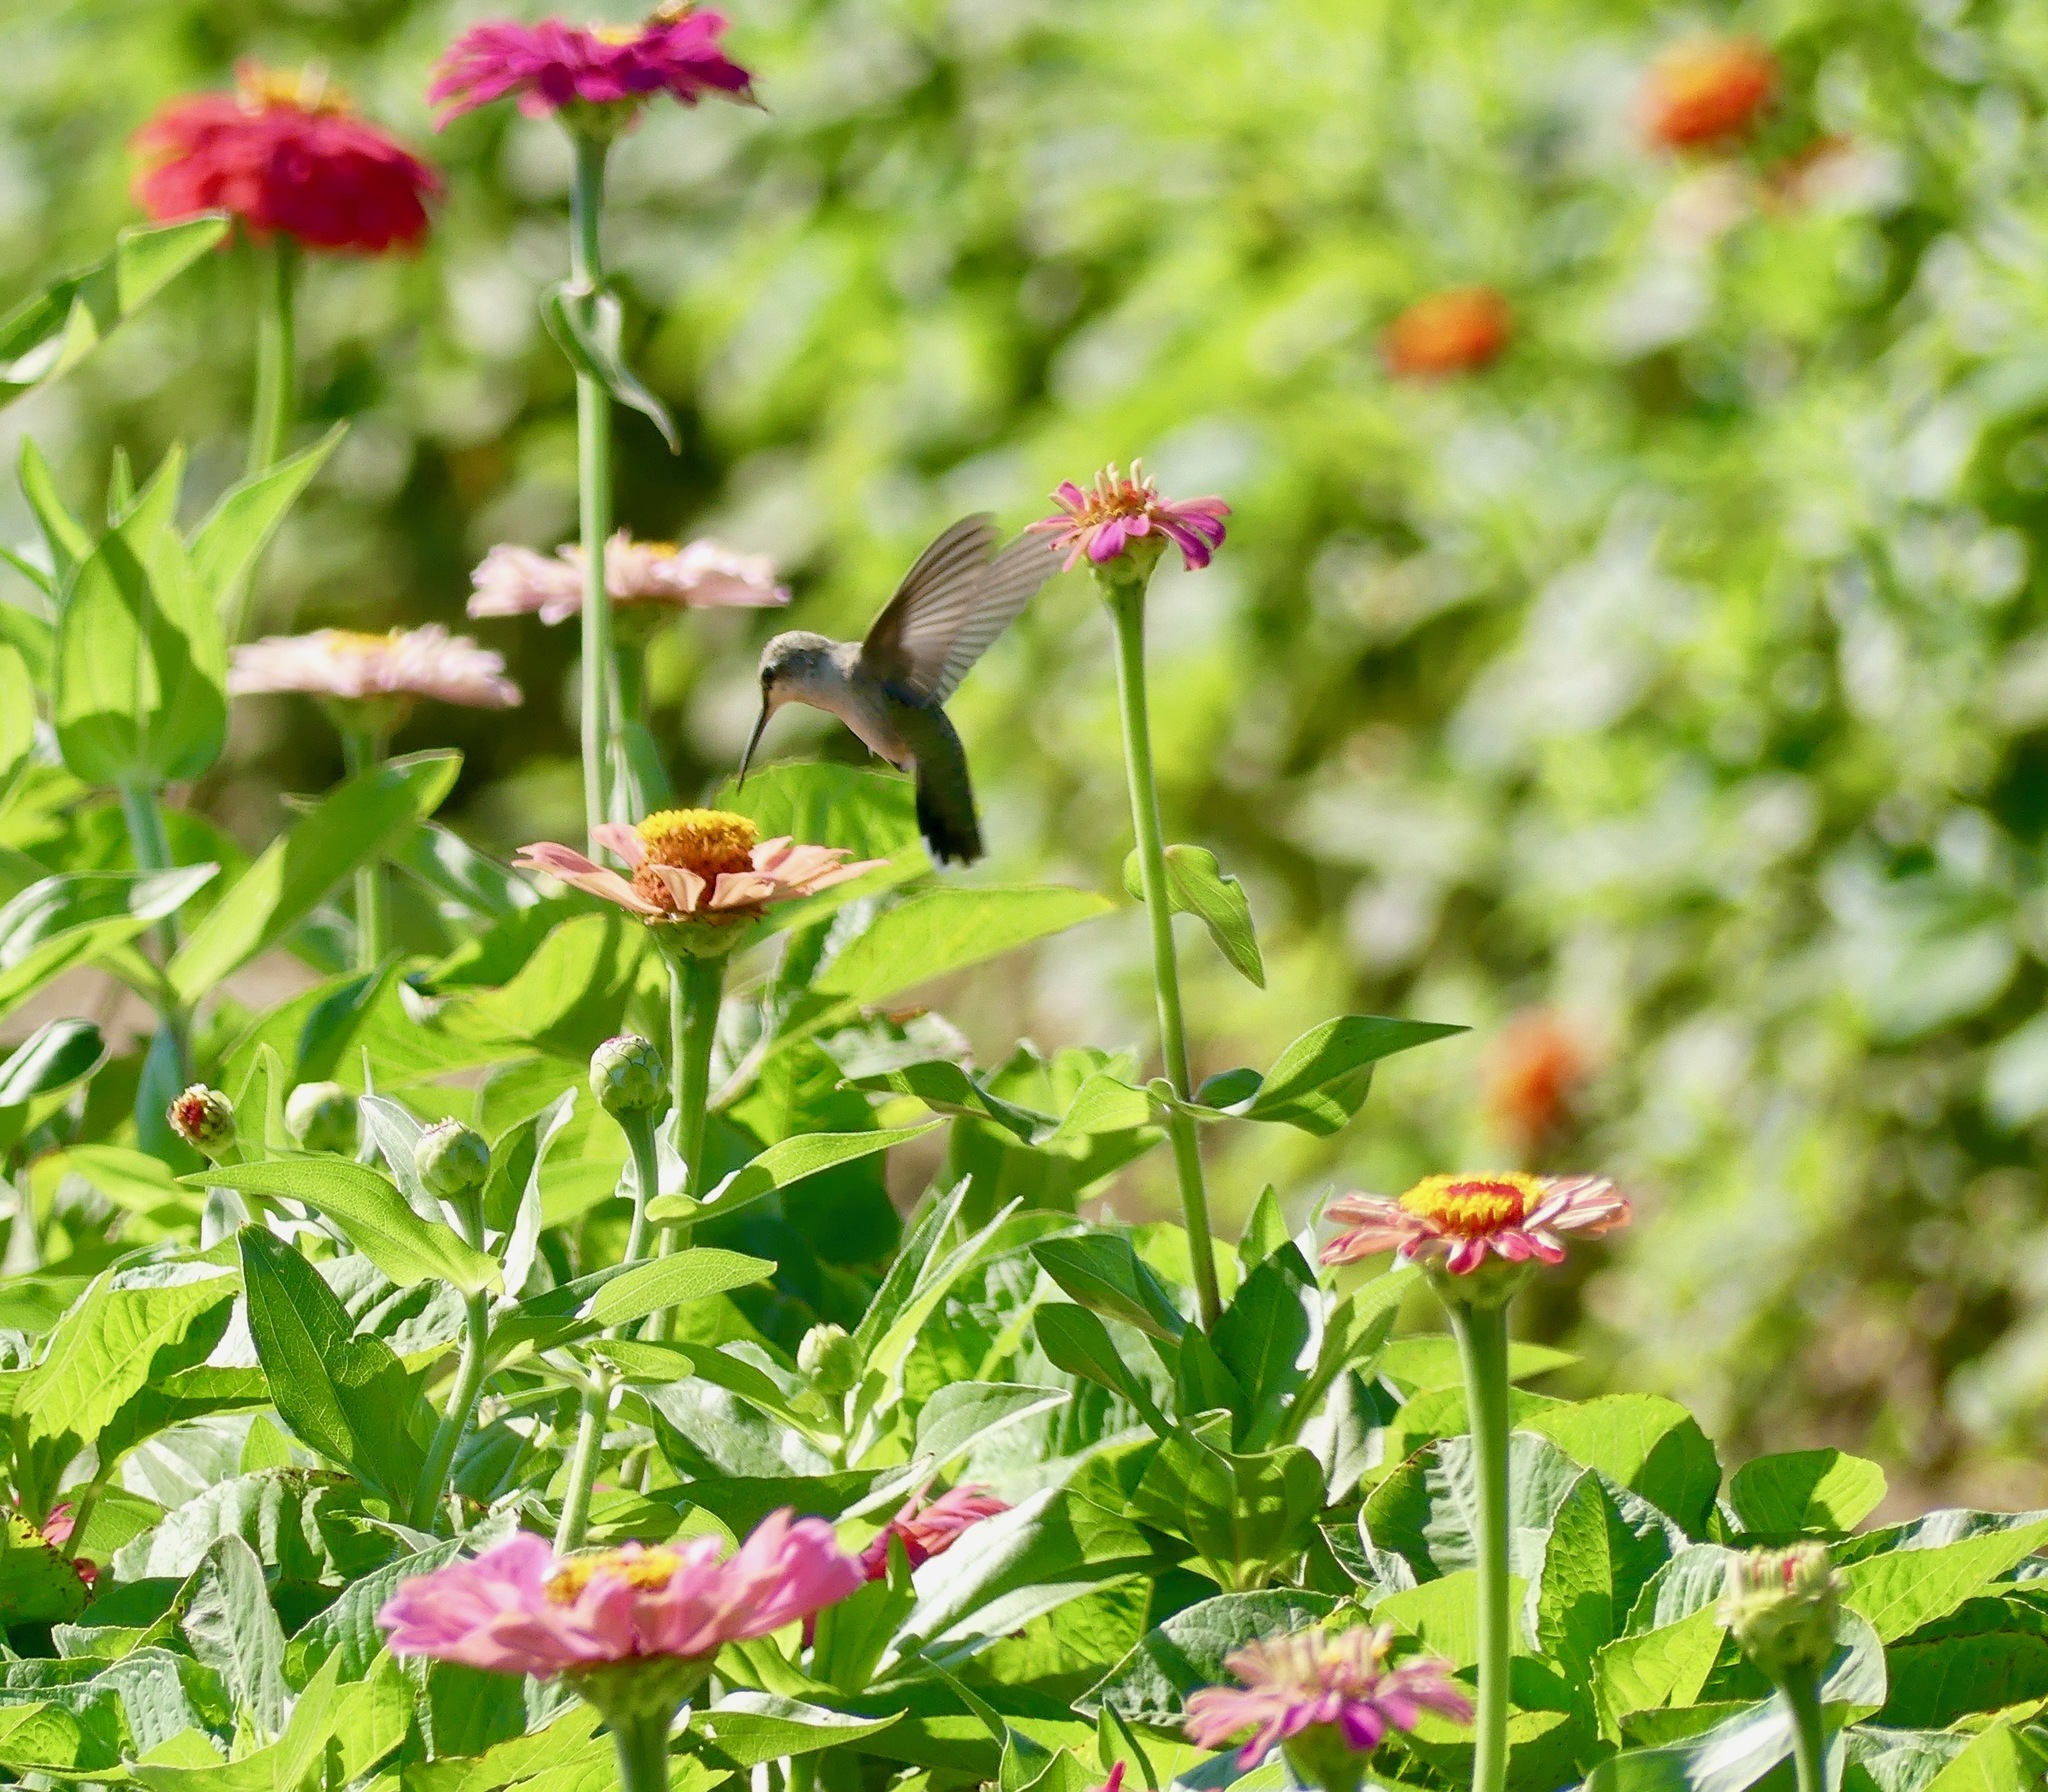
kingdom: Animalia
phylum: Chordata
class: Aves
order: Apodiformes
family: Trochilidae
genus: Archilochus
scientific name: Archilochus alexandri
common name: Black-chinned hummingbird
